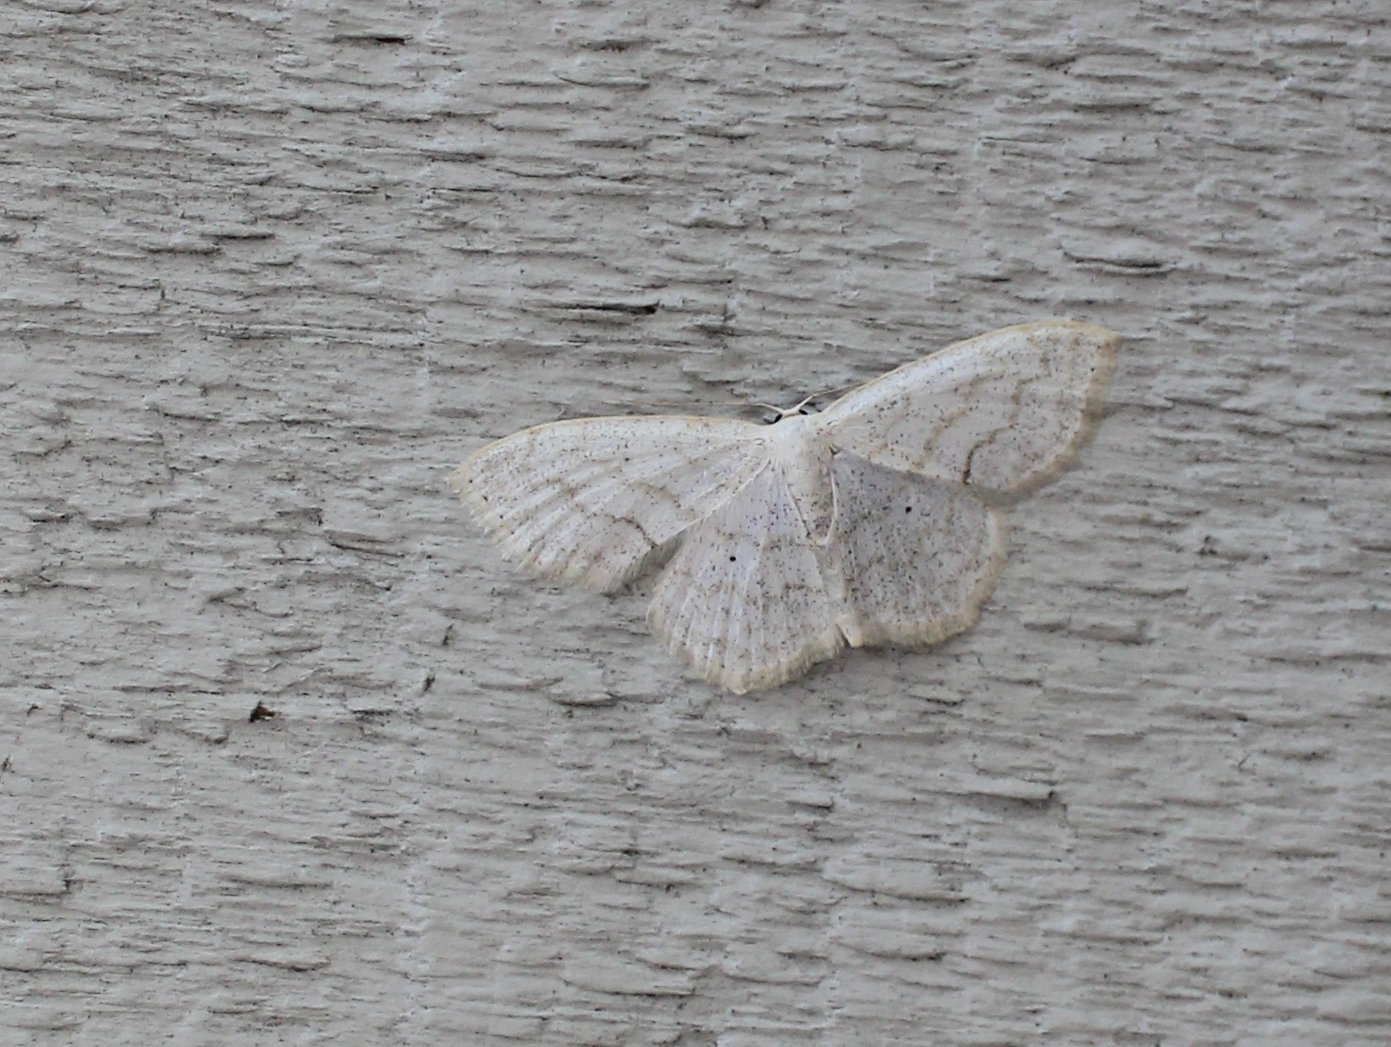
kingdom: Animalia
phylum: Arthropoda
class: Insecta
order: Lepidoptera
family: Geometridae
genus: Scopula
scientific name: Scopula limboundata
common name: Large lace border
